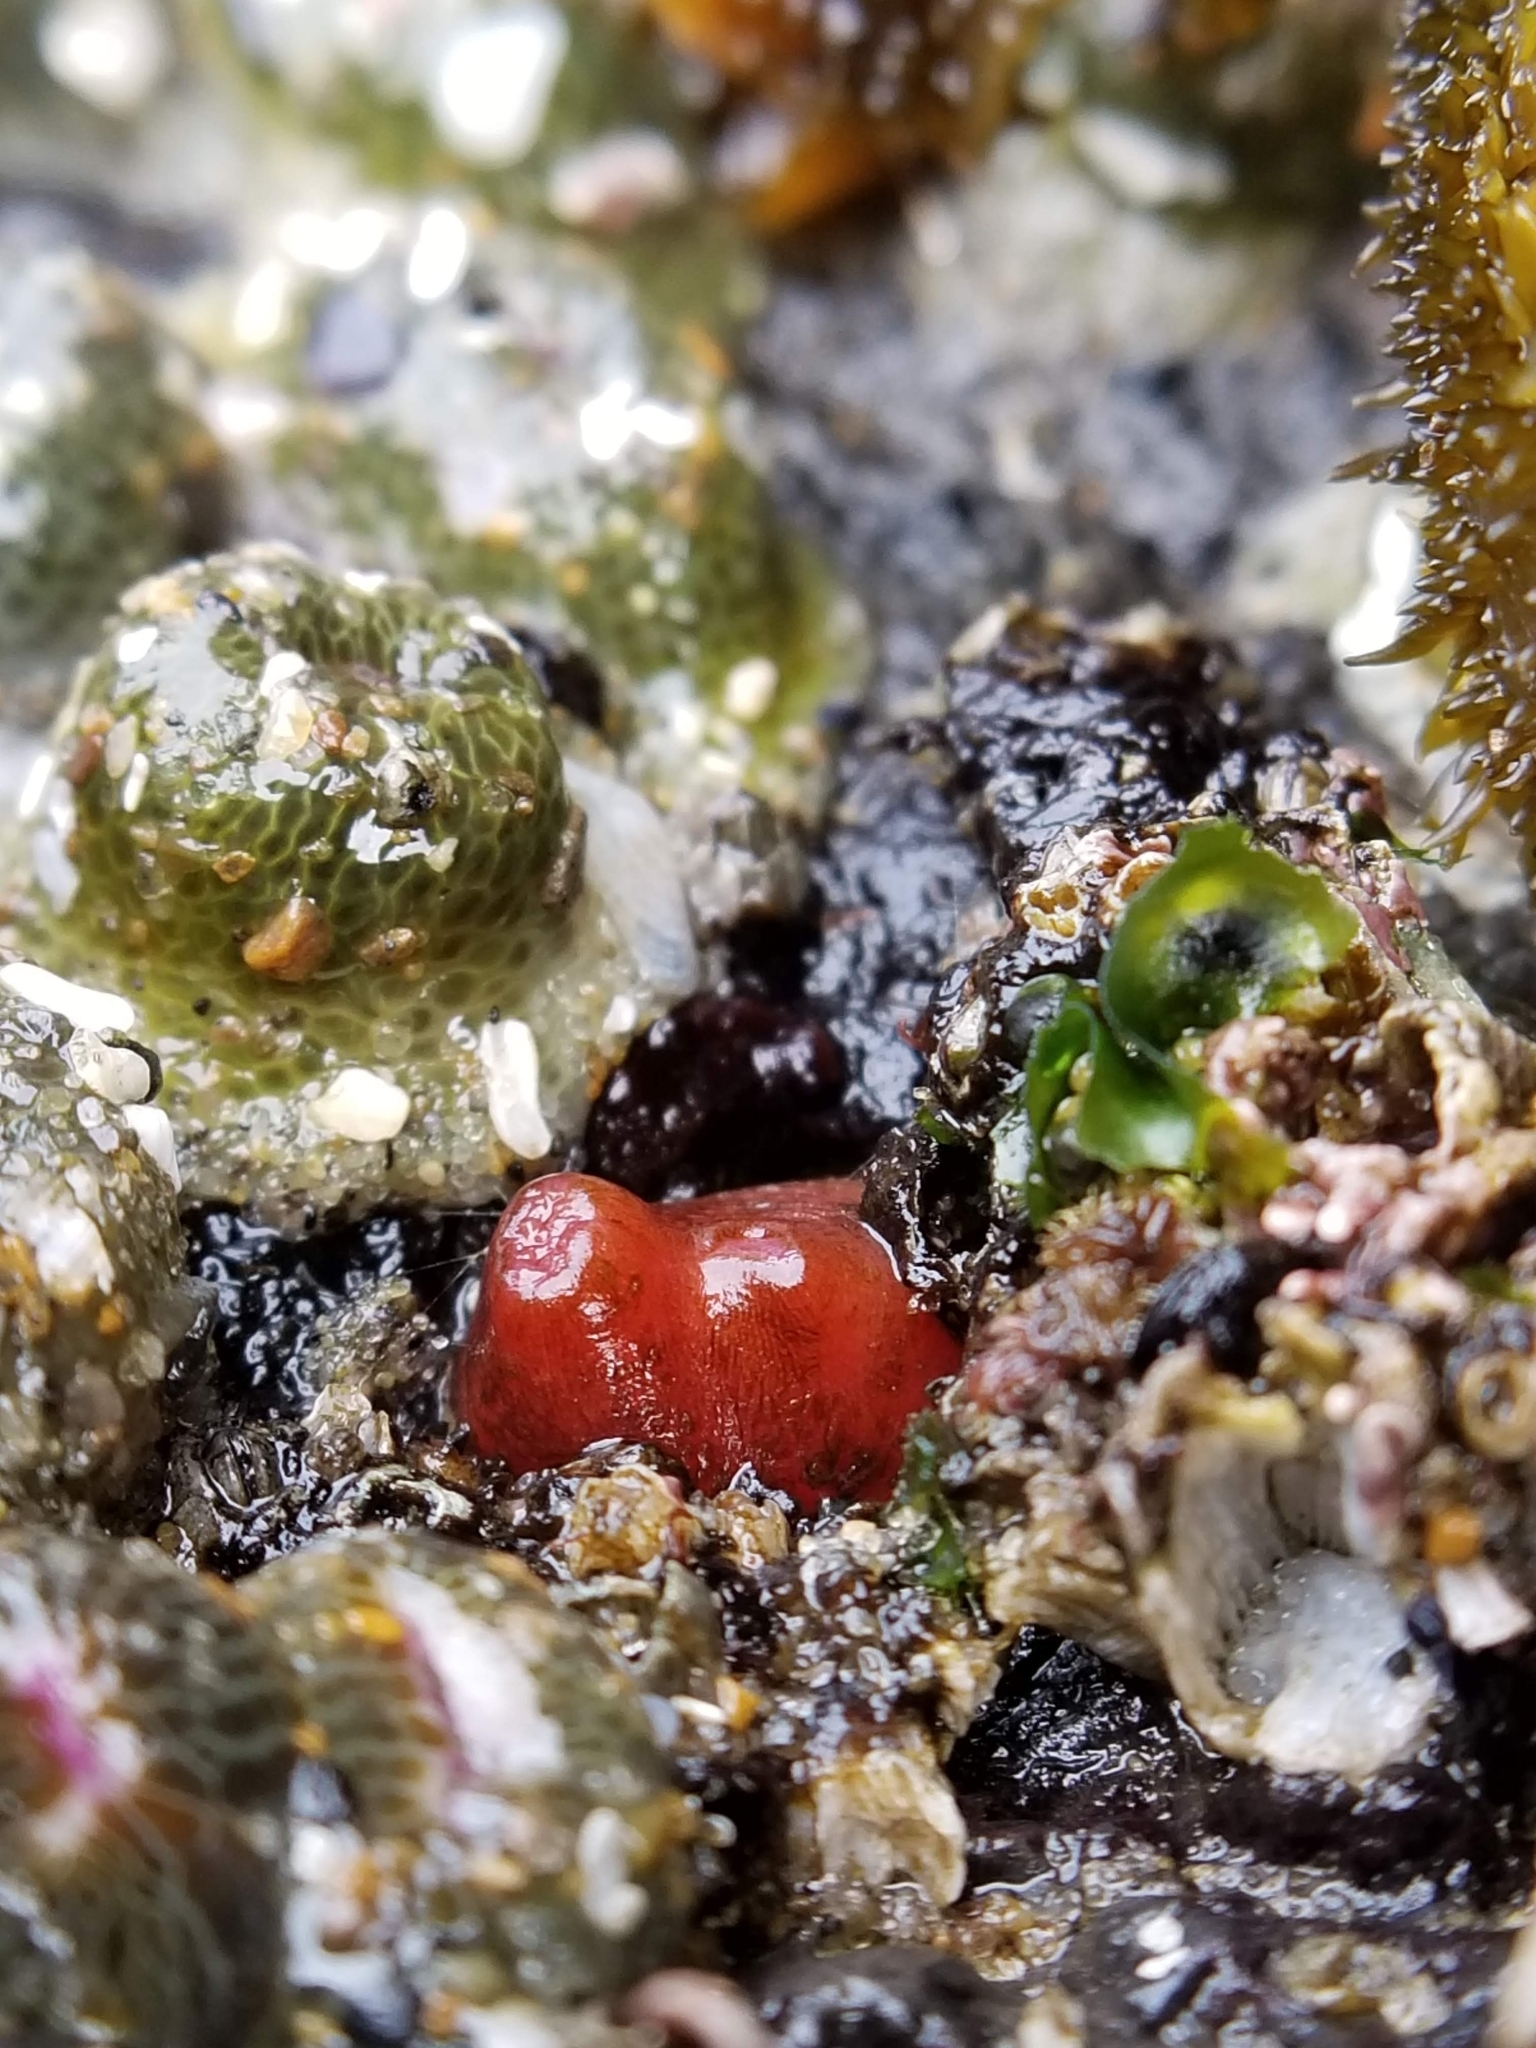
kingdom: Animalia
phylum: Mollusca
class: Bivalvia
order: Adapedonta
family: Hiatellidae
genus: Hiatella
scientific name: Hiatella arctica
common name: Arctic hiatella
